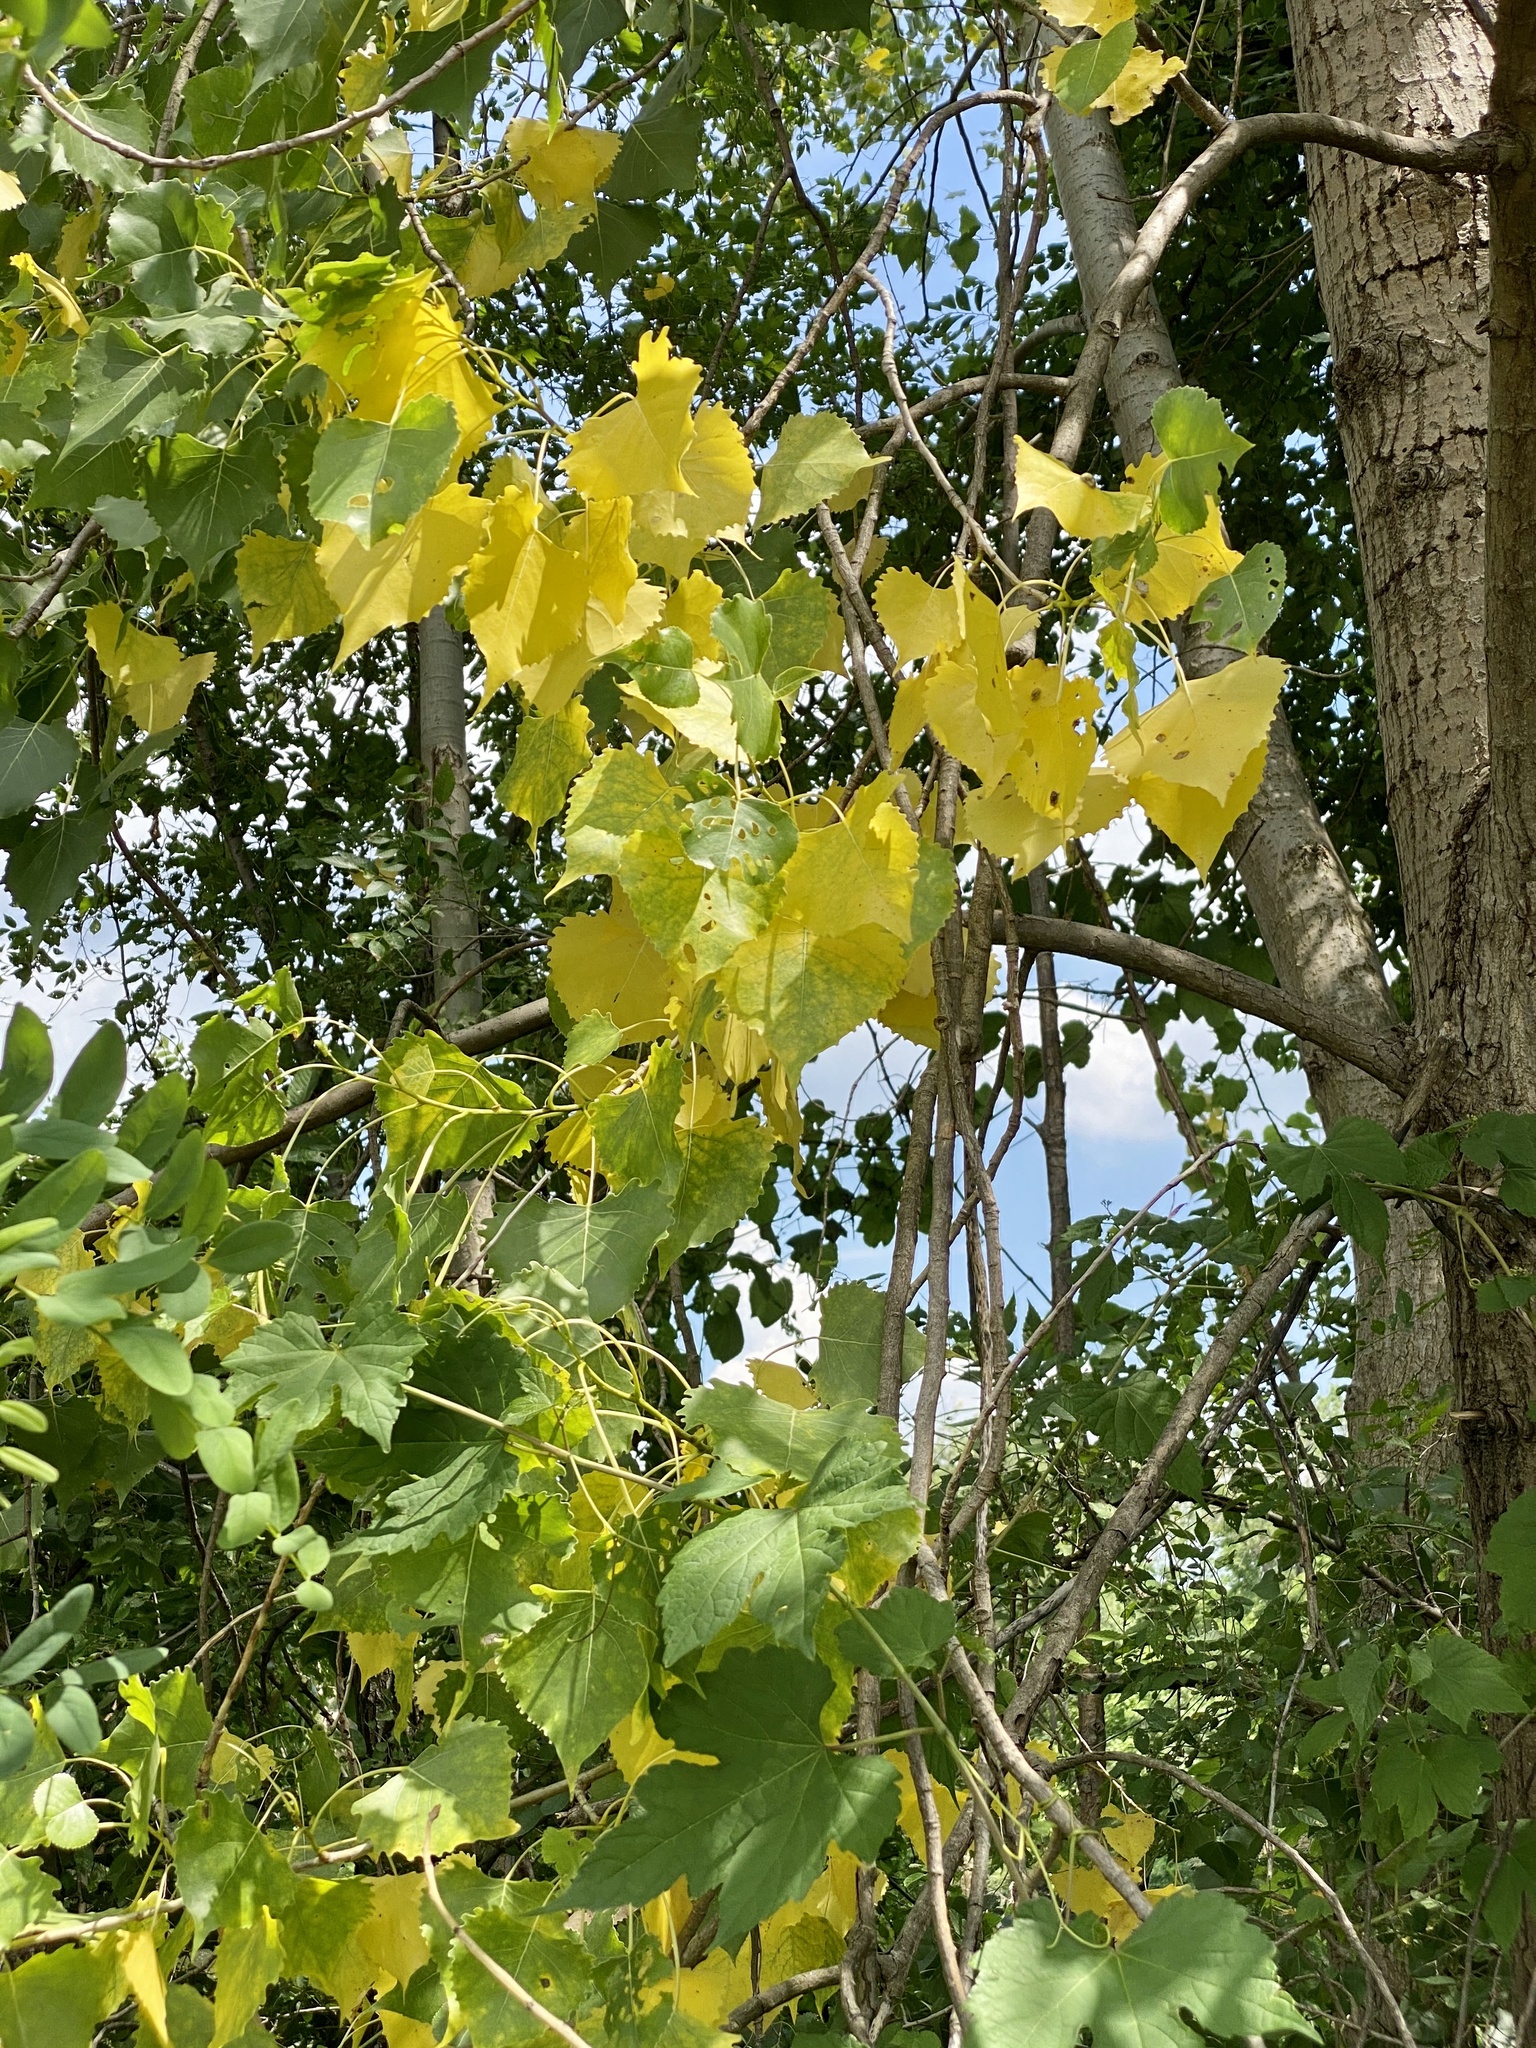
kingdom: Plantae
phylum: Tracheophyta
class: Magnoliopsida
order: Malpighiales
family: Salicaceae
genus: Populus
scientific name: Populus deltoides
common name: Eastern cottonwood
